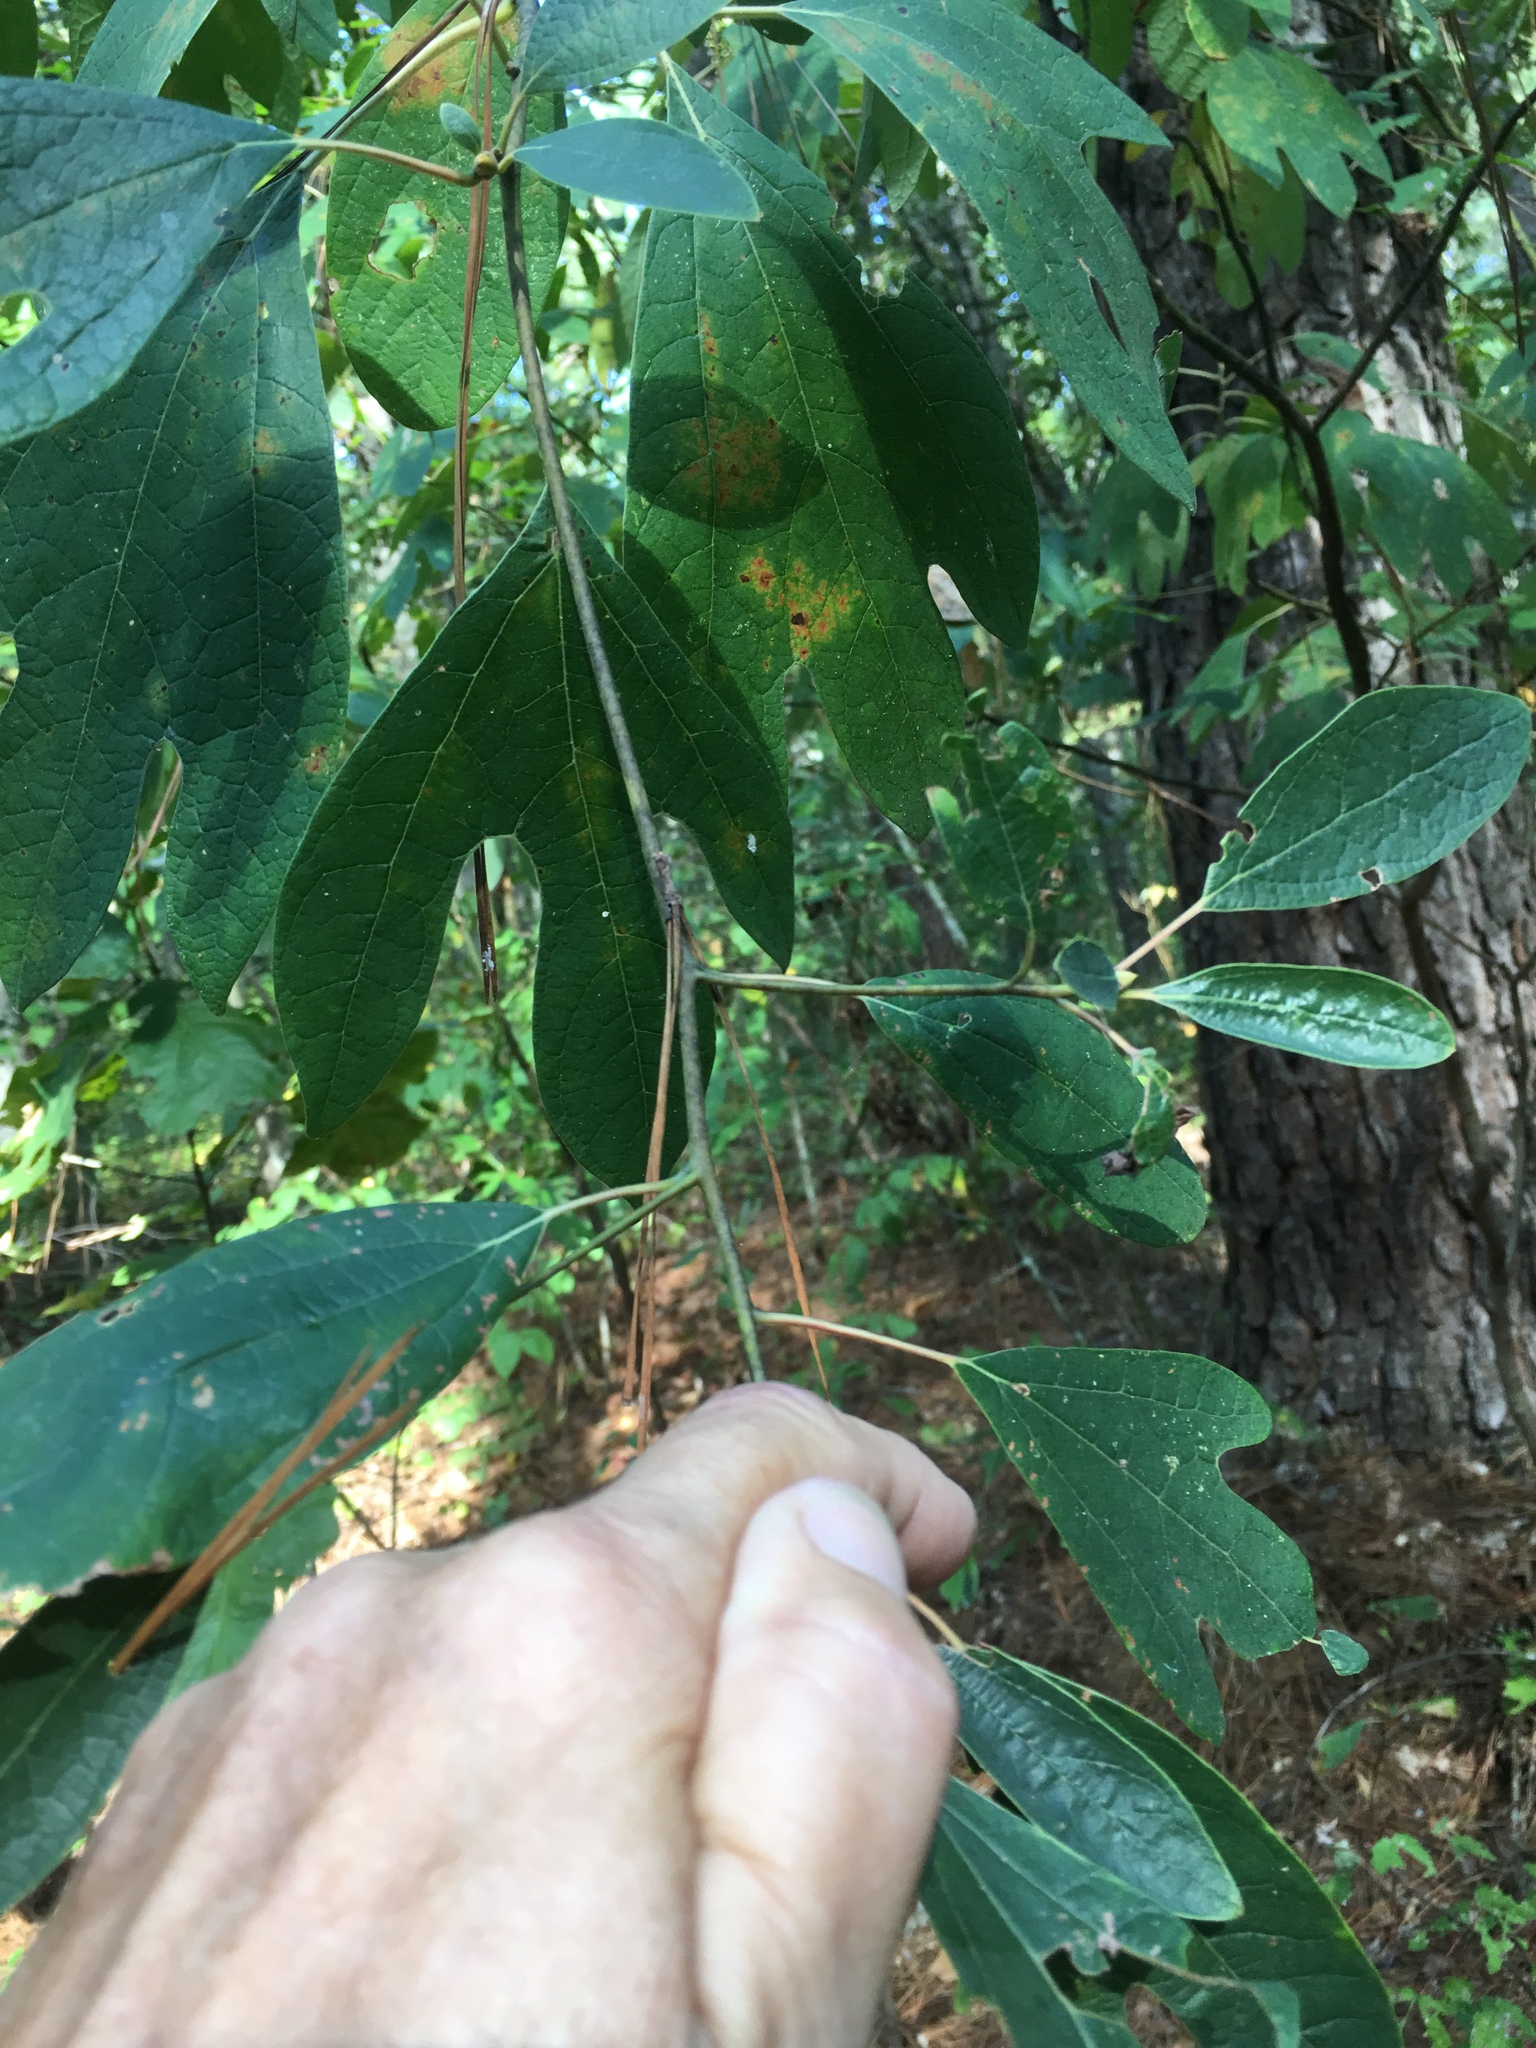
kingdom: Plantae
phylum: Tracheophyta
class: Magnoliopsida
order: Laurales
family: Lauraceae
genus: Sassafras
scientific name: Sassafras albidum
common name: Sassafras
